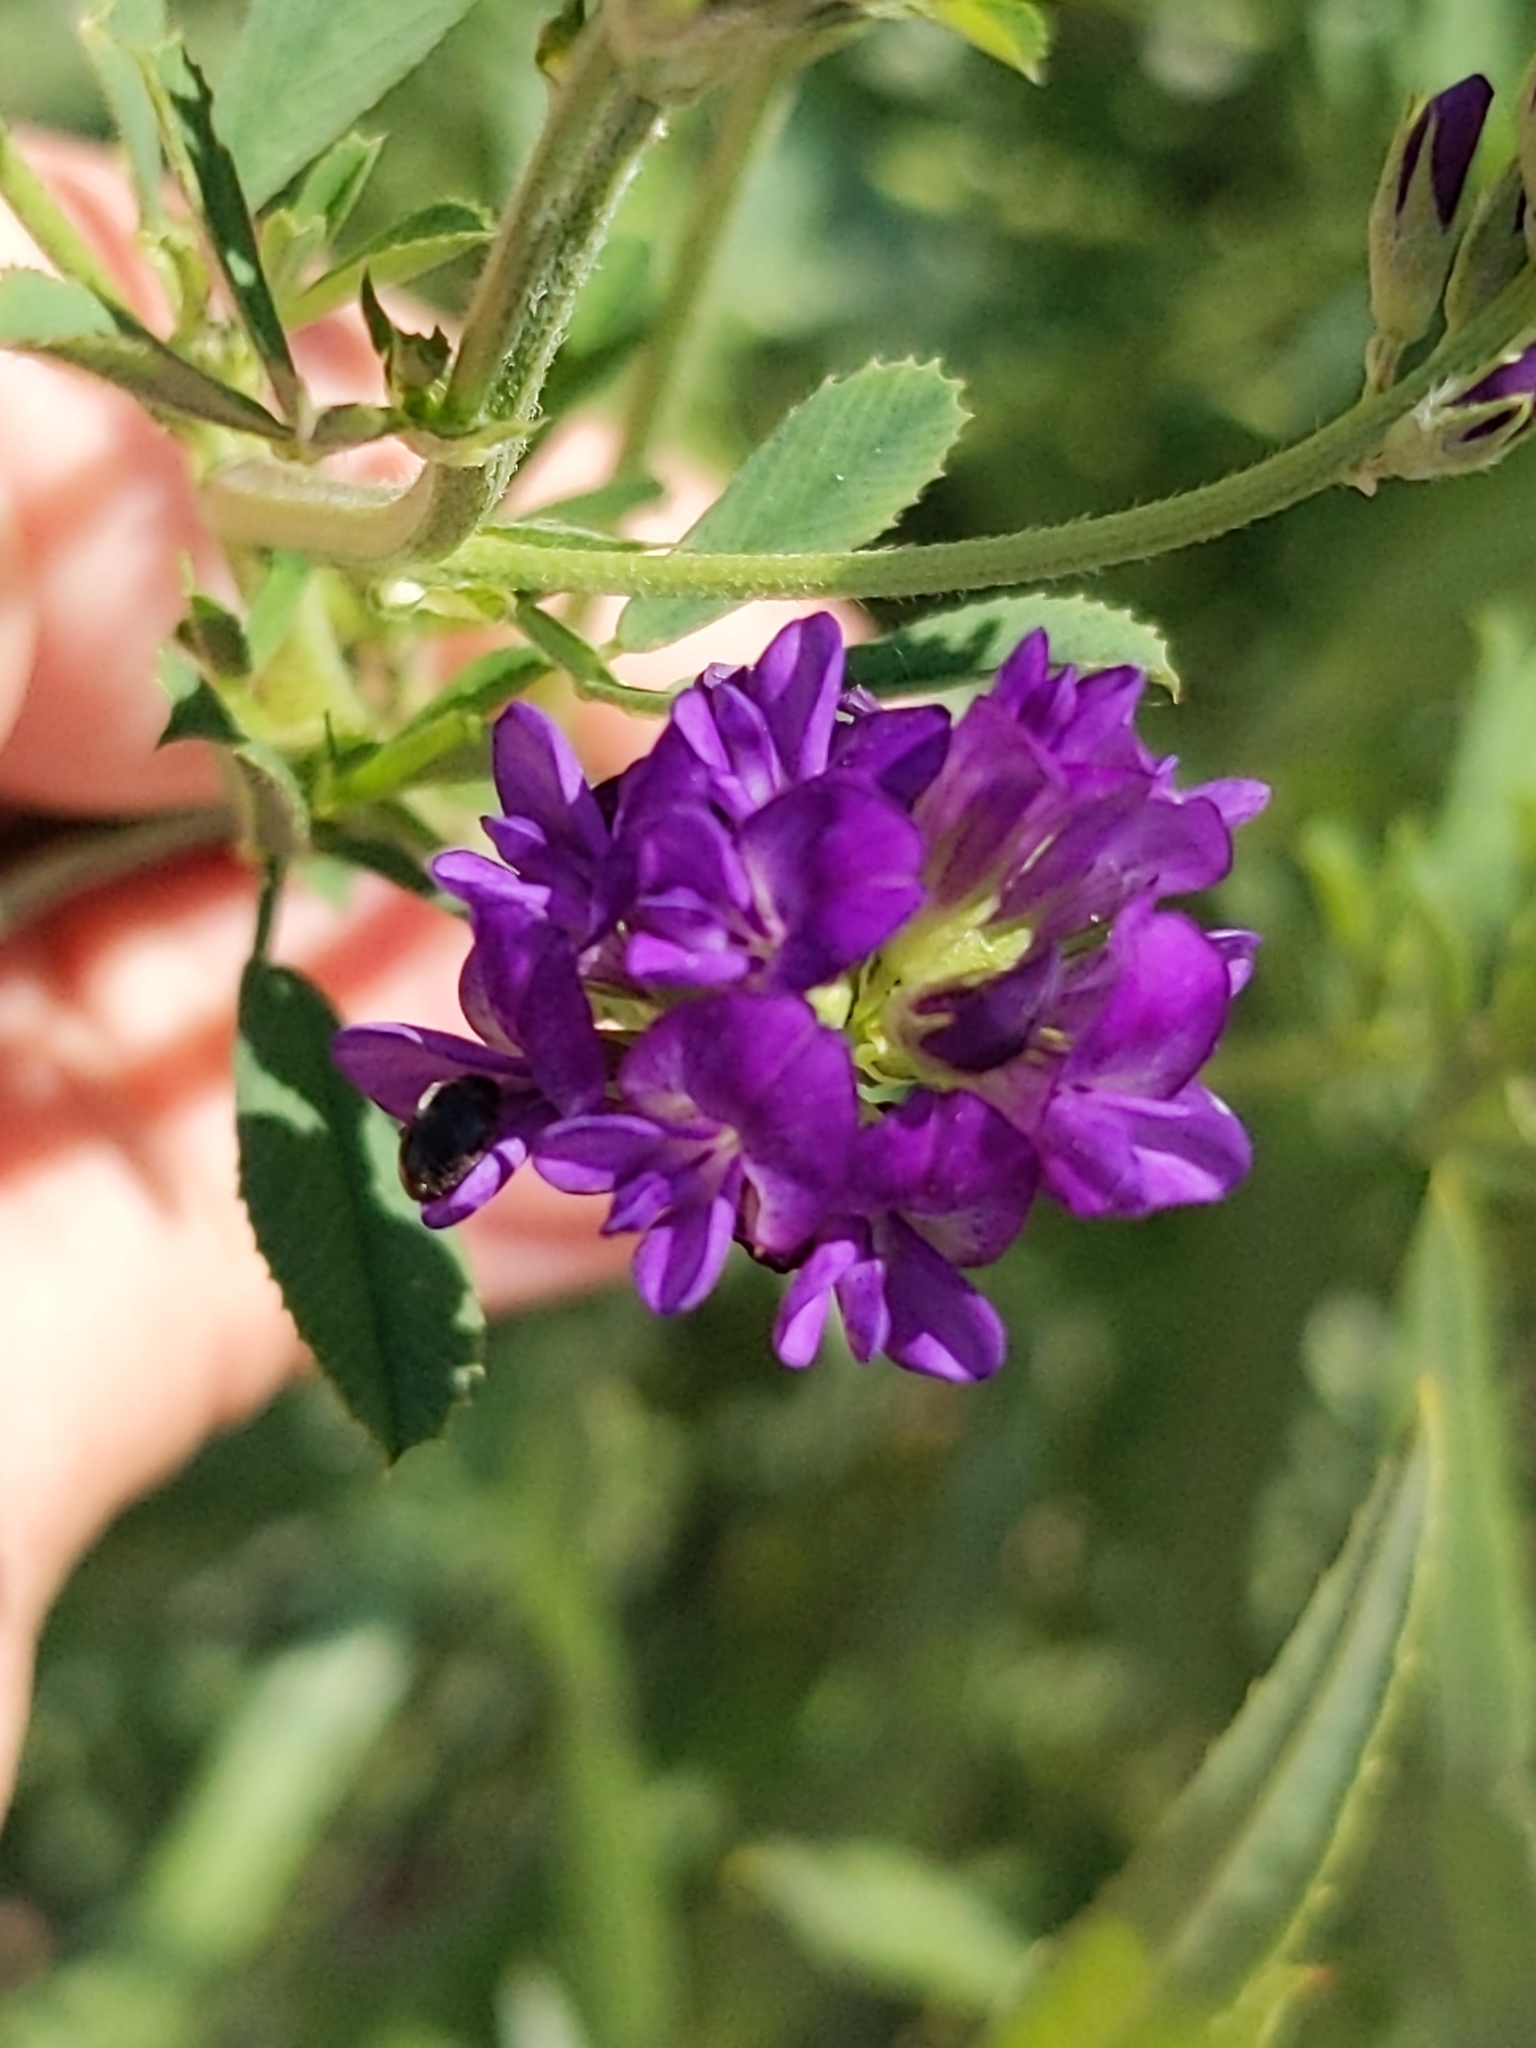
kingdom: Plantae
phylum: Tracheophyta
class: Magnoliopsida
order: Fabales
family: Fabaceae
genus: Medicago
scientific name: Medicago sativa
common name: Alfalfa
